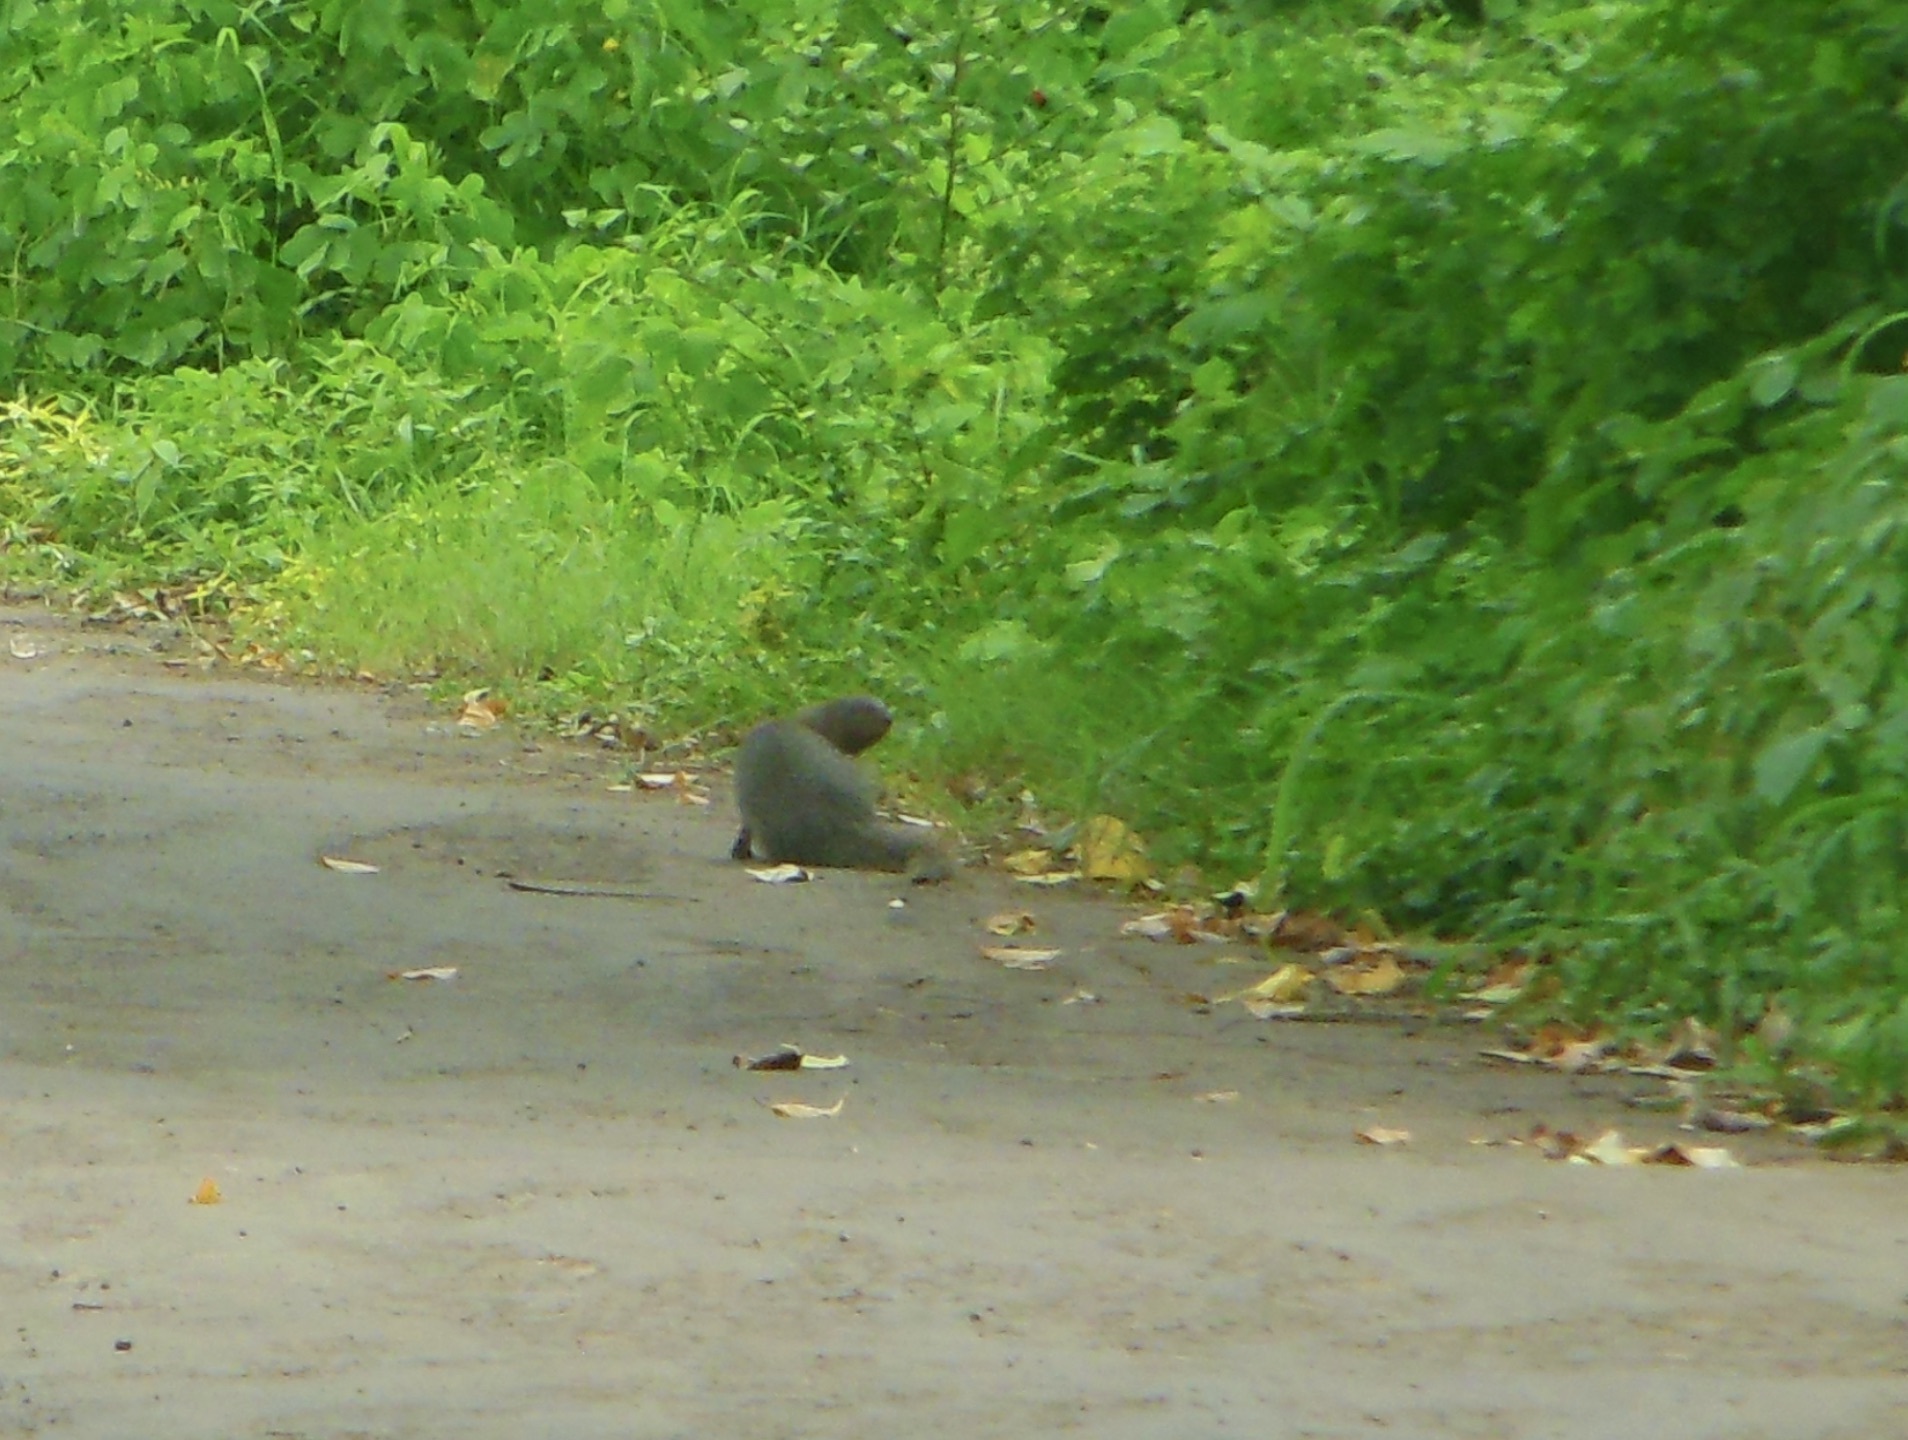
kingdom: Animalia
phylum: Chordata
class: Mammalia
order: Carnivora
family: Herpestidae
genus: Herpestes
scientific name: Herpestes edwardsi
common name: Indian gray mongoose
